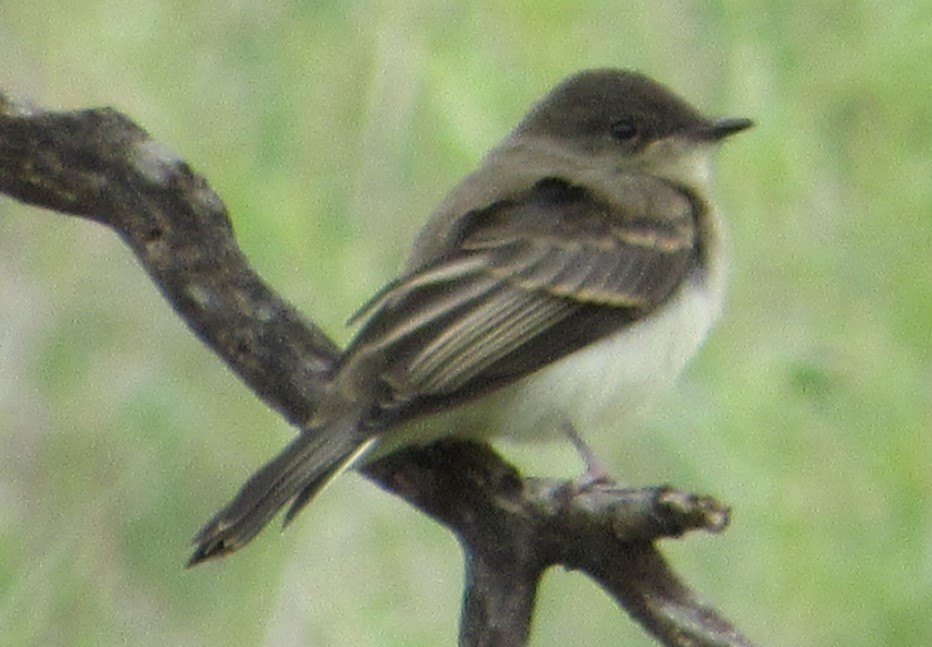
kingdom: Animalia
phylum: Chordata
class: Aves
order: Passeriformes
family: Tyrannidae
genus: Sayornis
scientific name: Sayornis phoebe
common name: Eastern phoebe
